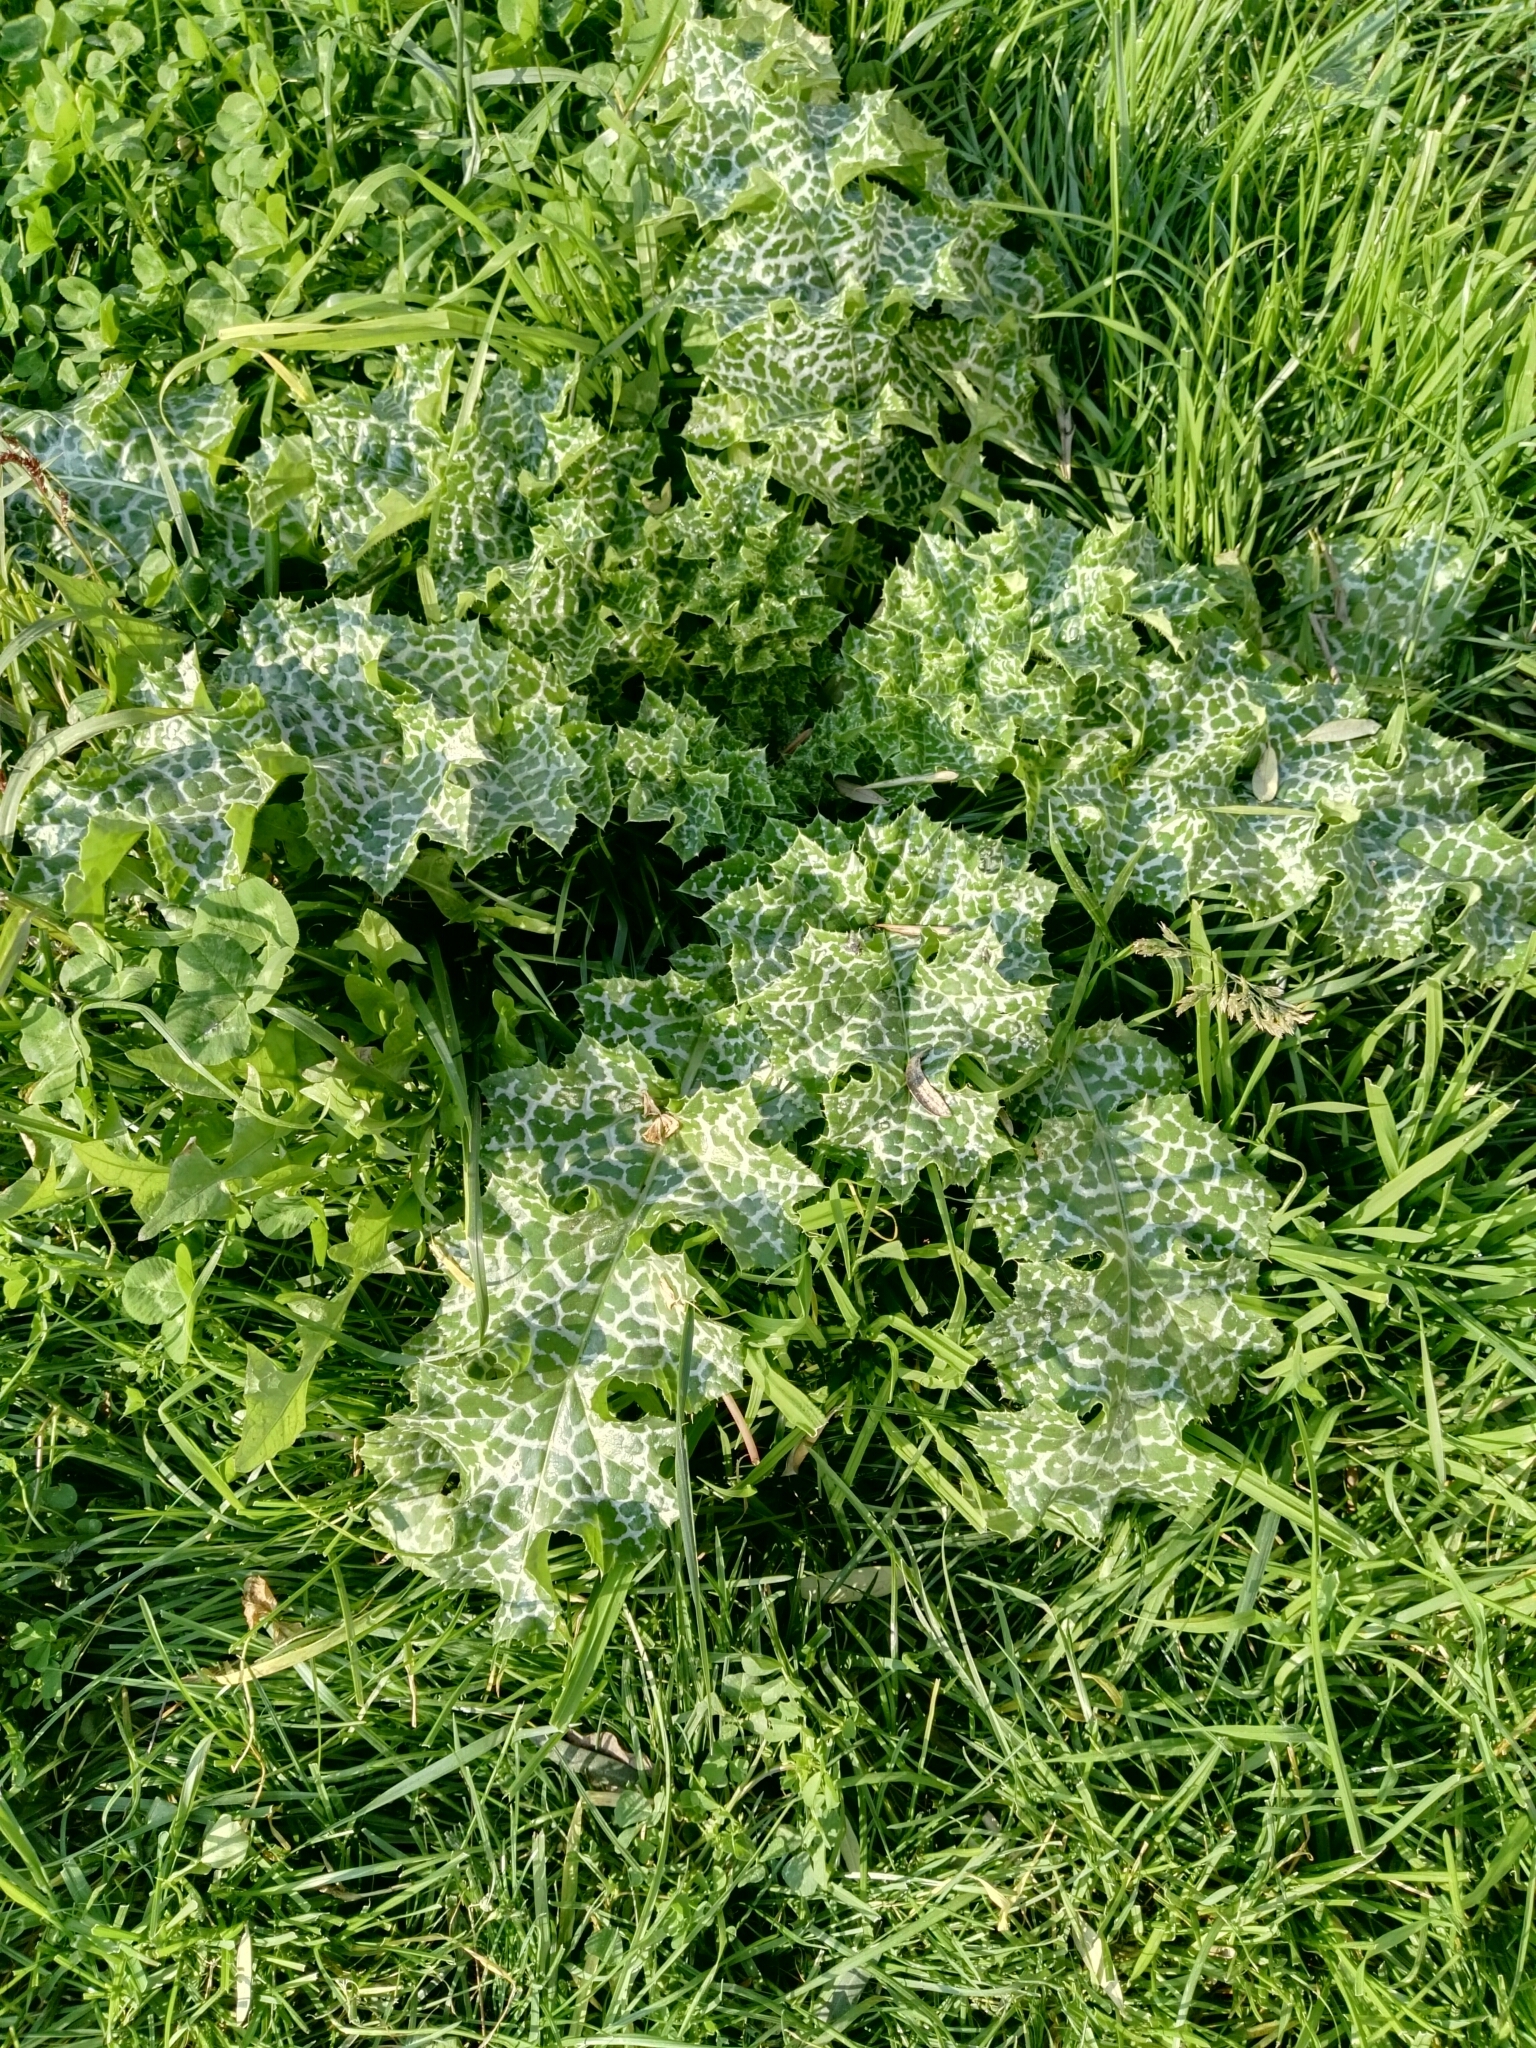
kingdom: Plantae
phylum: Tracheophyta
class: Magnoliopsida
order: Asterales
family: Asteraceae
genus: Silybum
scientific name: Silybum marianum
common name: Milk thistle
